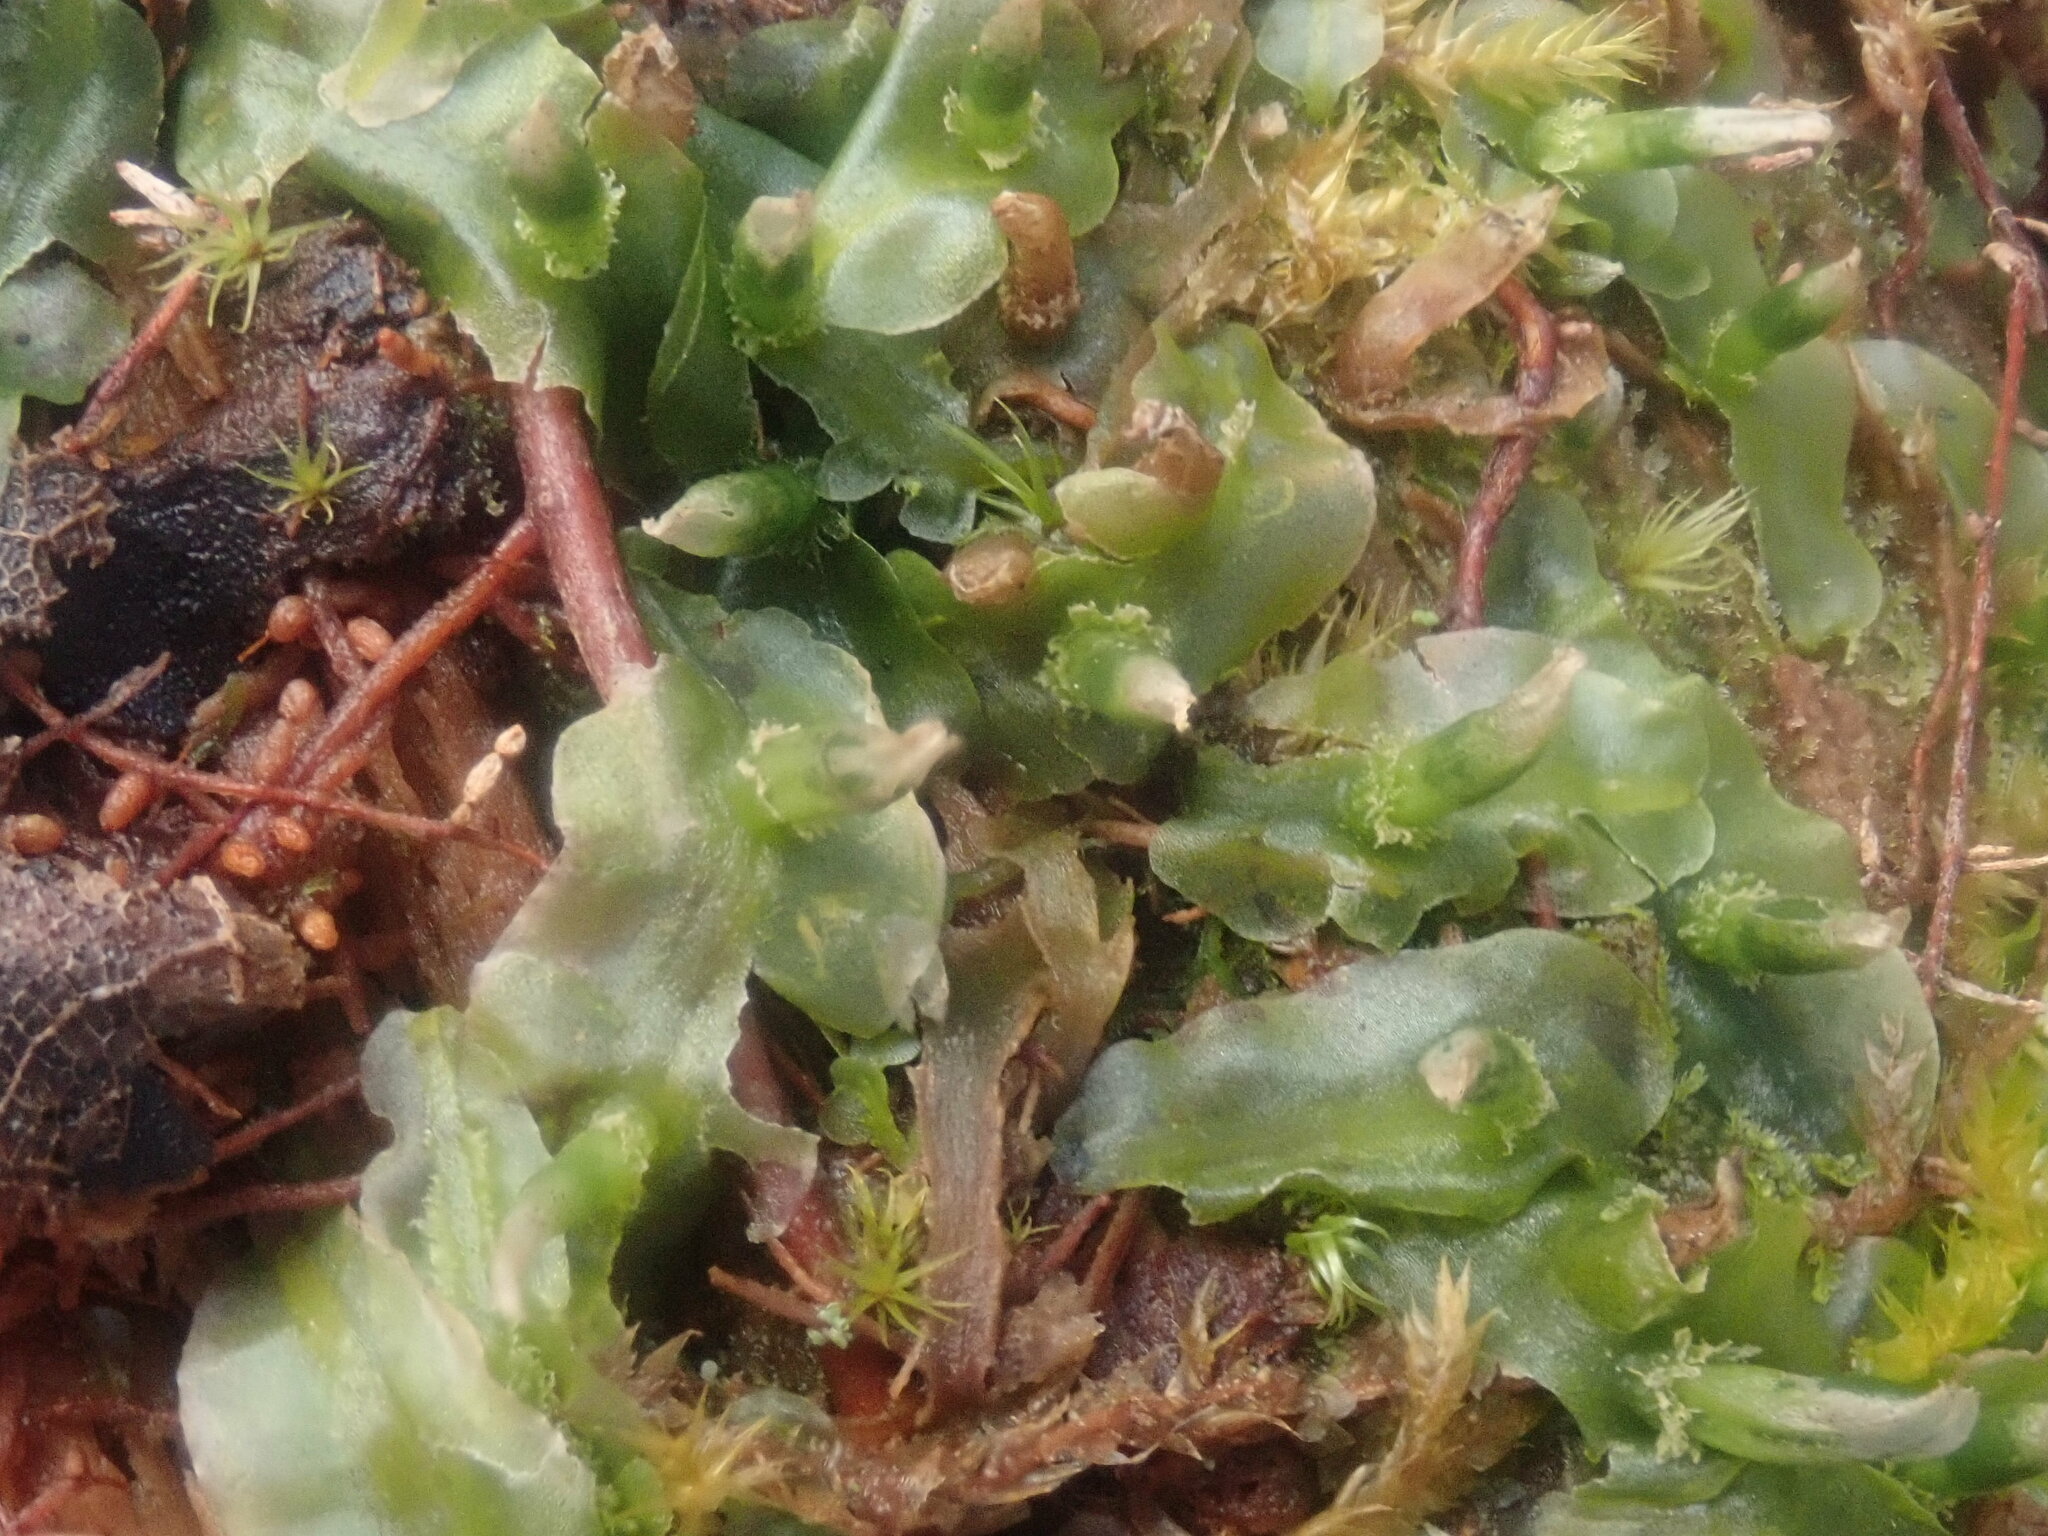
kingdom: Plantae
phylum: Marchantiophyta
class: Jungermanniopsida
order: Pallaviciniales
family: Pallaviciniaceae
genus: Pallavicinia
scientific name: Pallavicinia lyellii
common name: Veilwort
